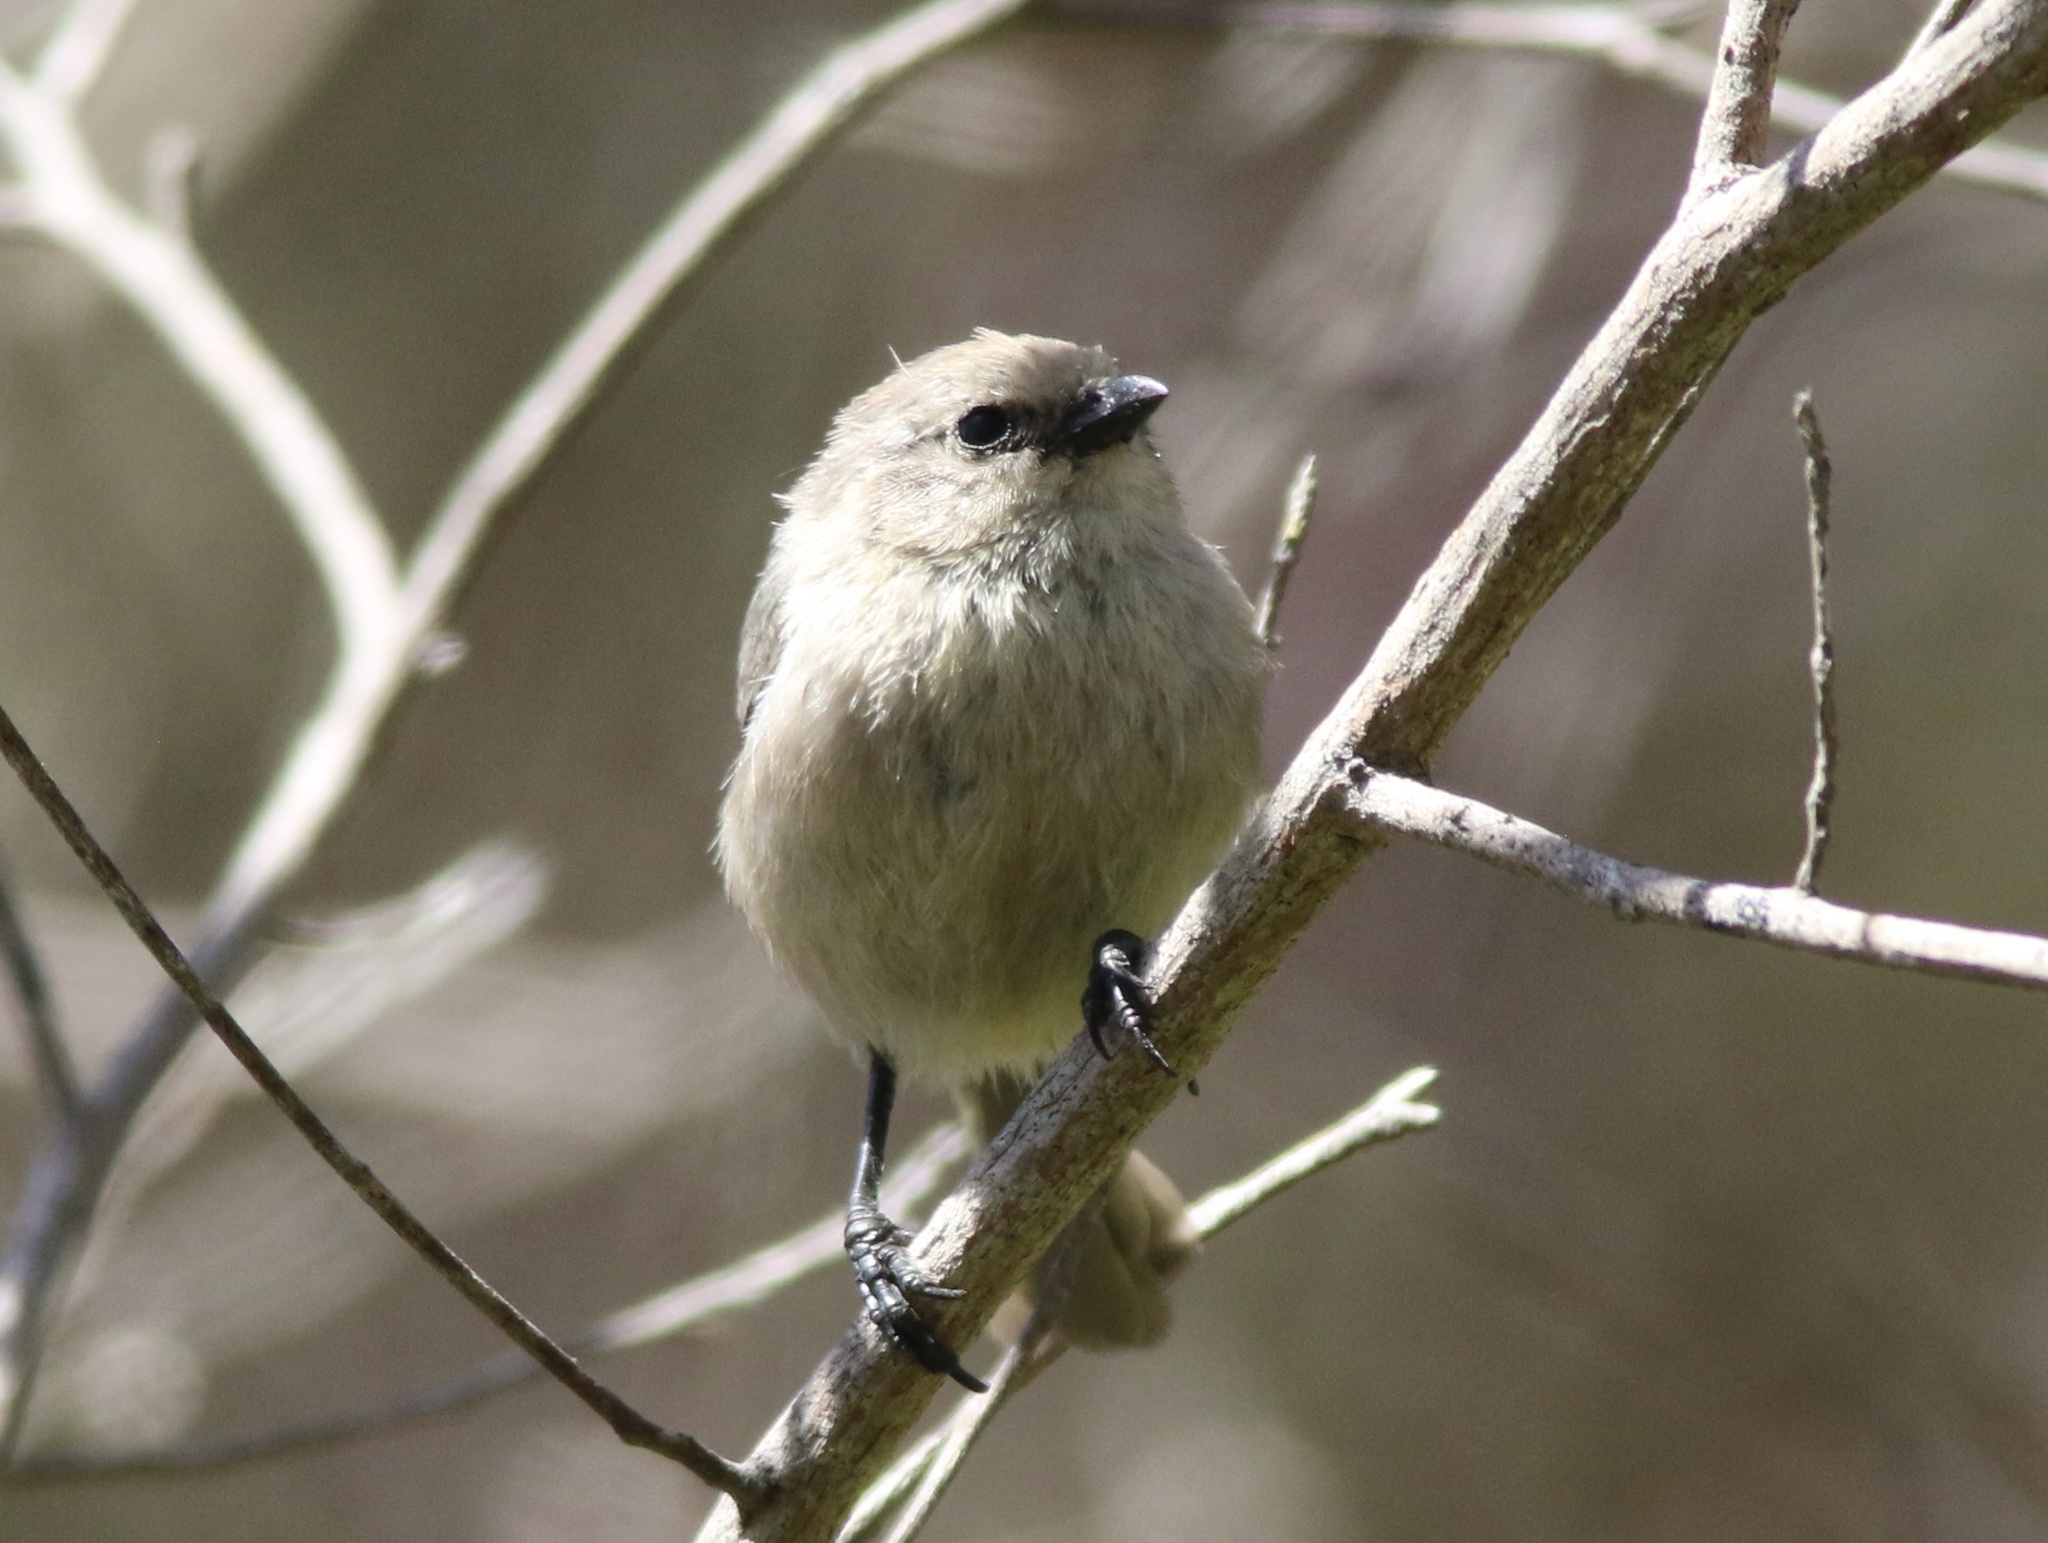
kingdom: Animalia
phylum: Chordata
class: Aves
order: Passeriformes
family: Aegithalidae
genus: Psaltriparus
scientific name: Psaltriparus minimus
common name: American bushtit
